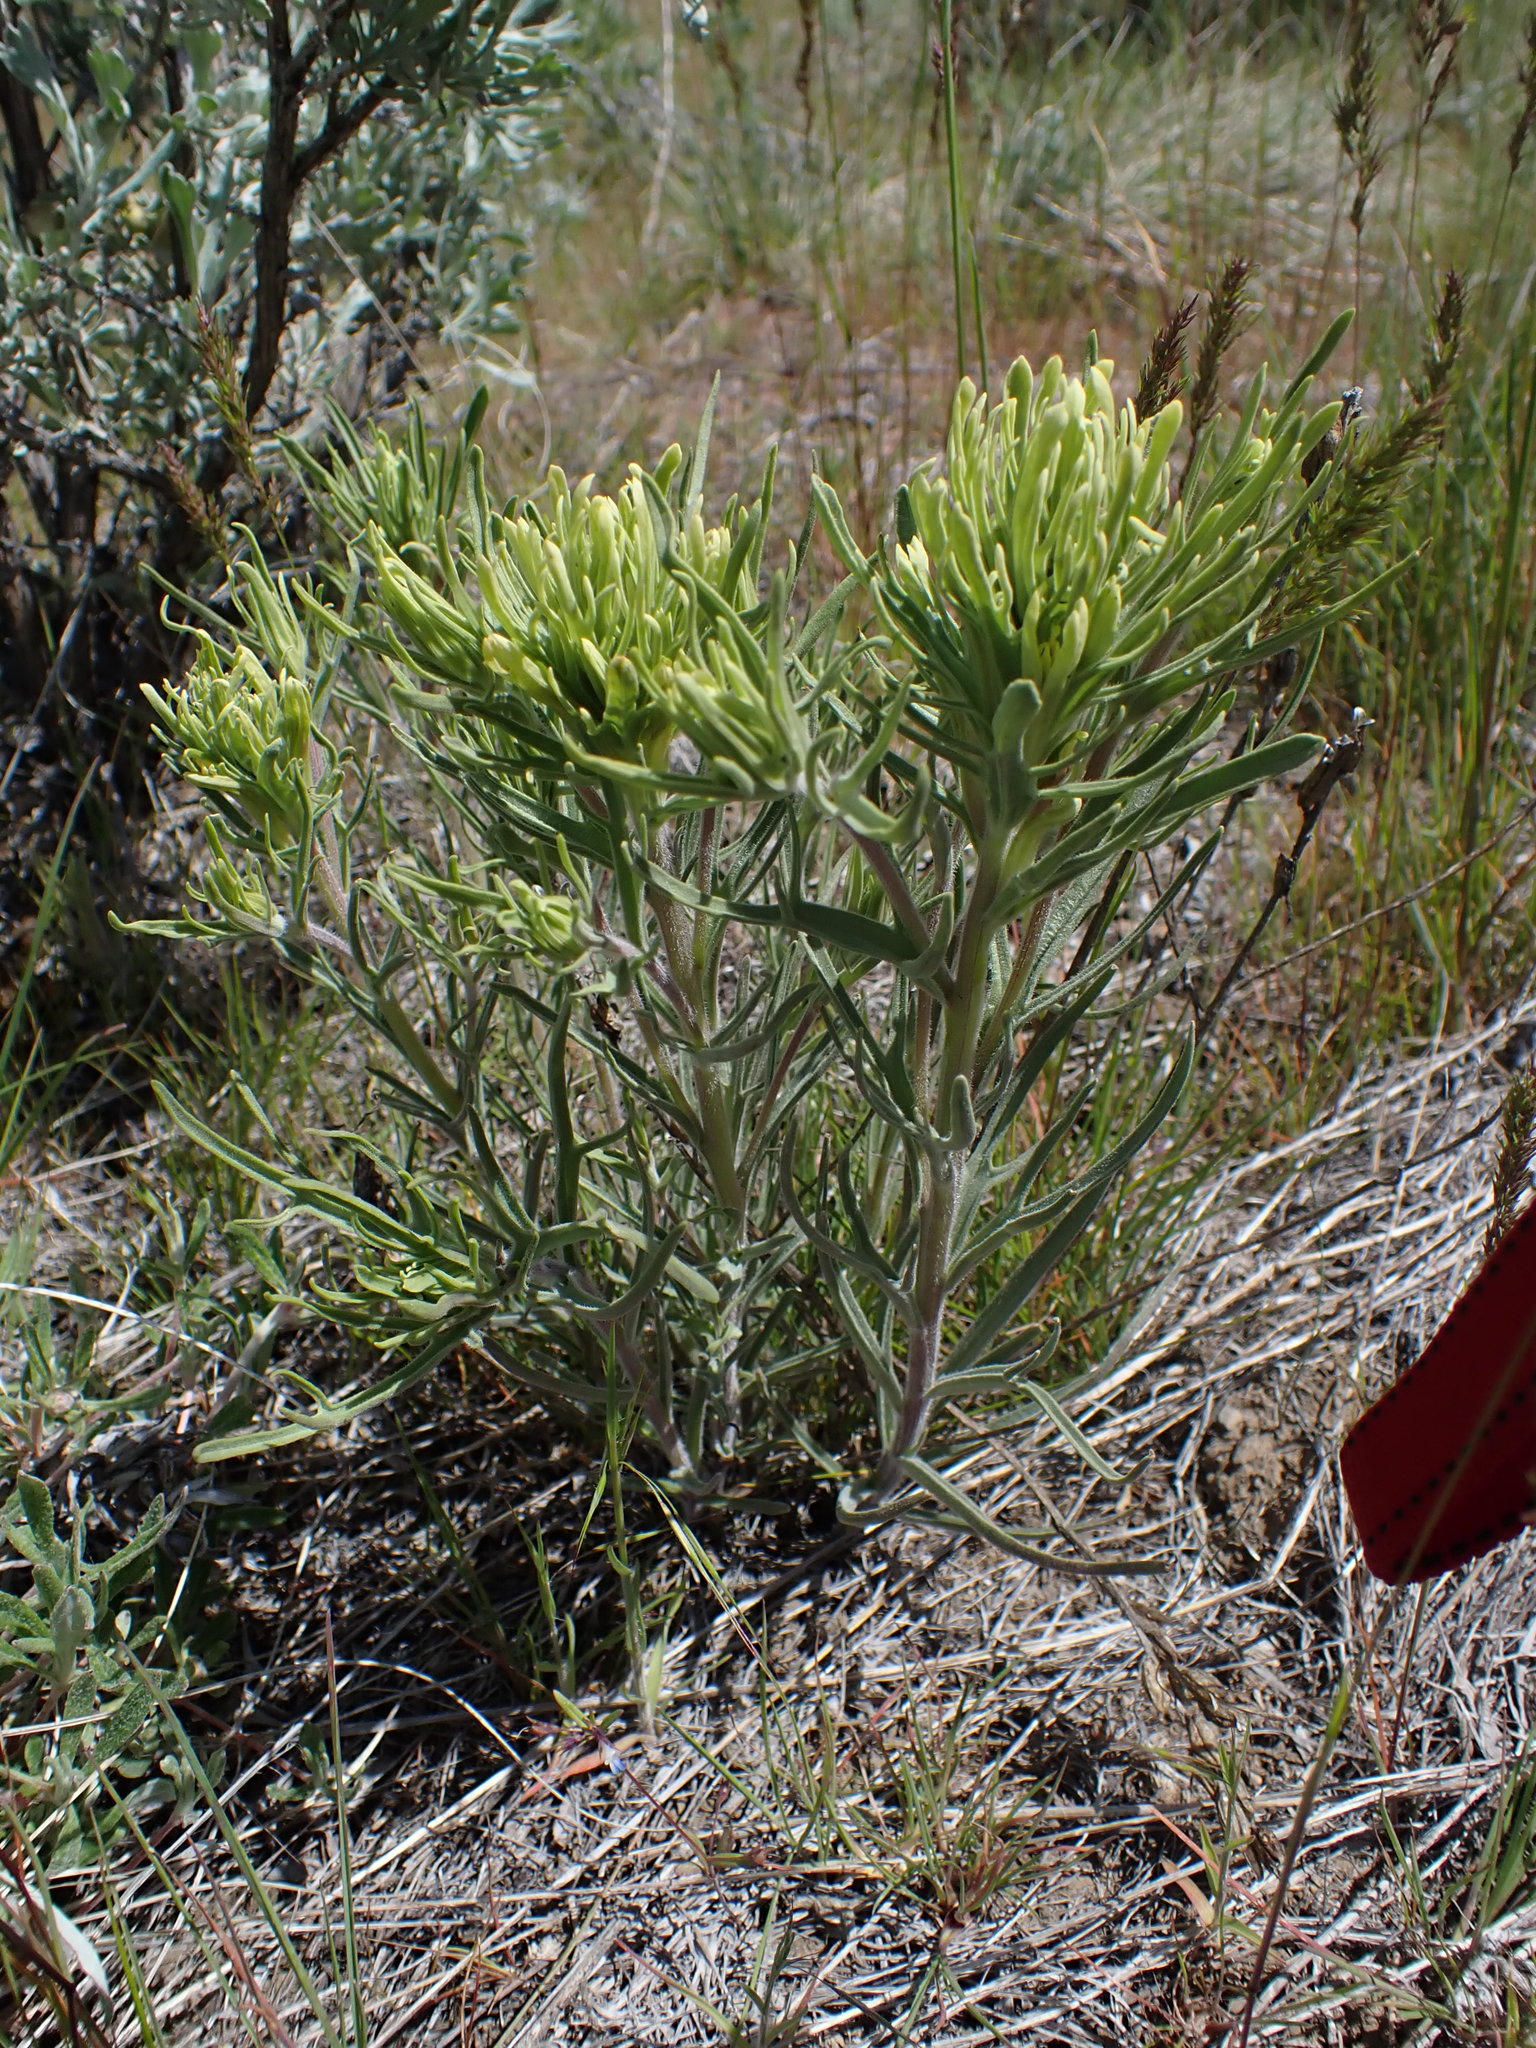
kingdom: Plantae
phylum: Tracheophyta
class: Magnoliopsida
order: Lamiales
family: Orobanchaceae
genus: Castilleja
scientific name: Castilleja thompsonii
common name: Thompson's paintbrush
